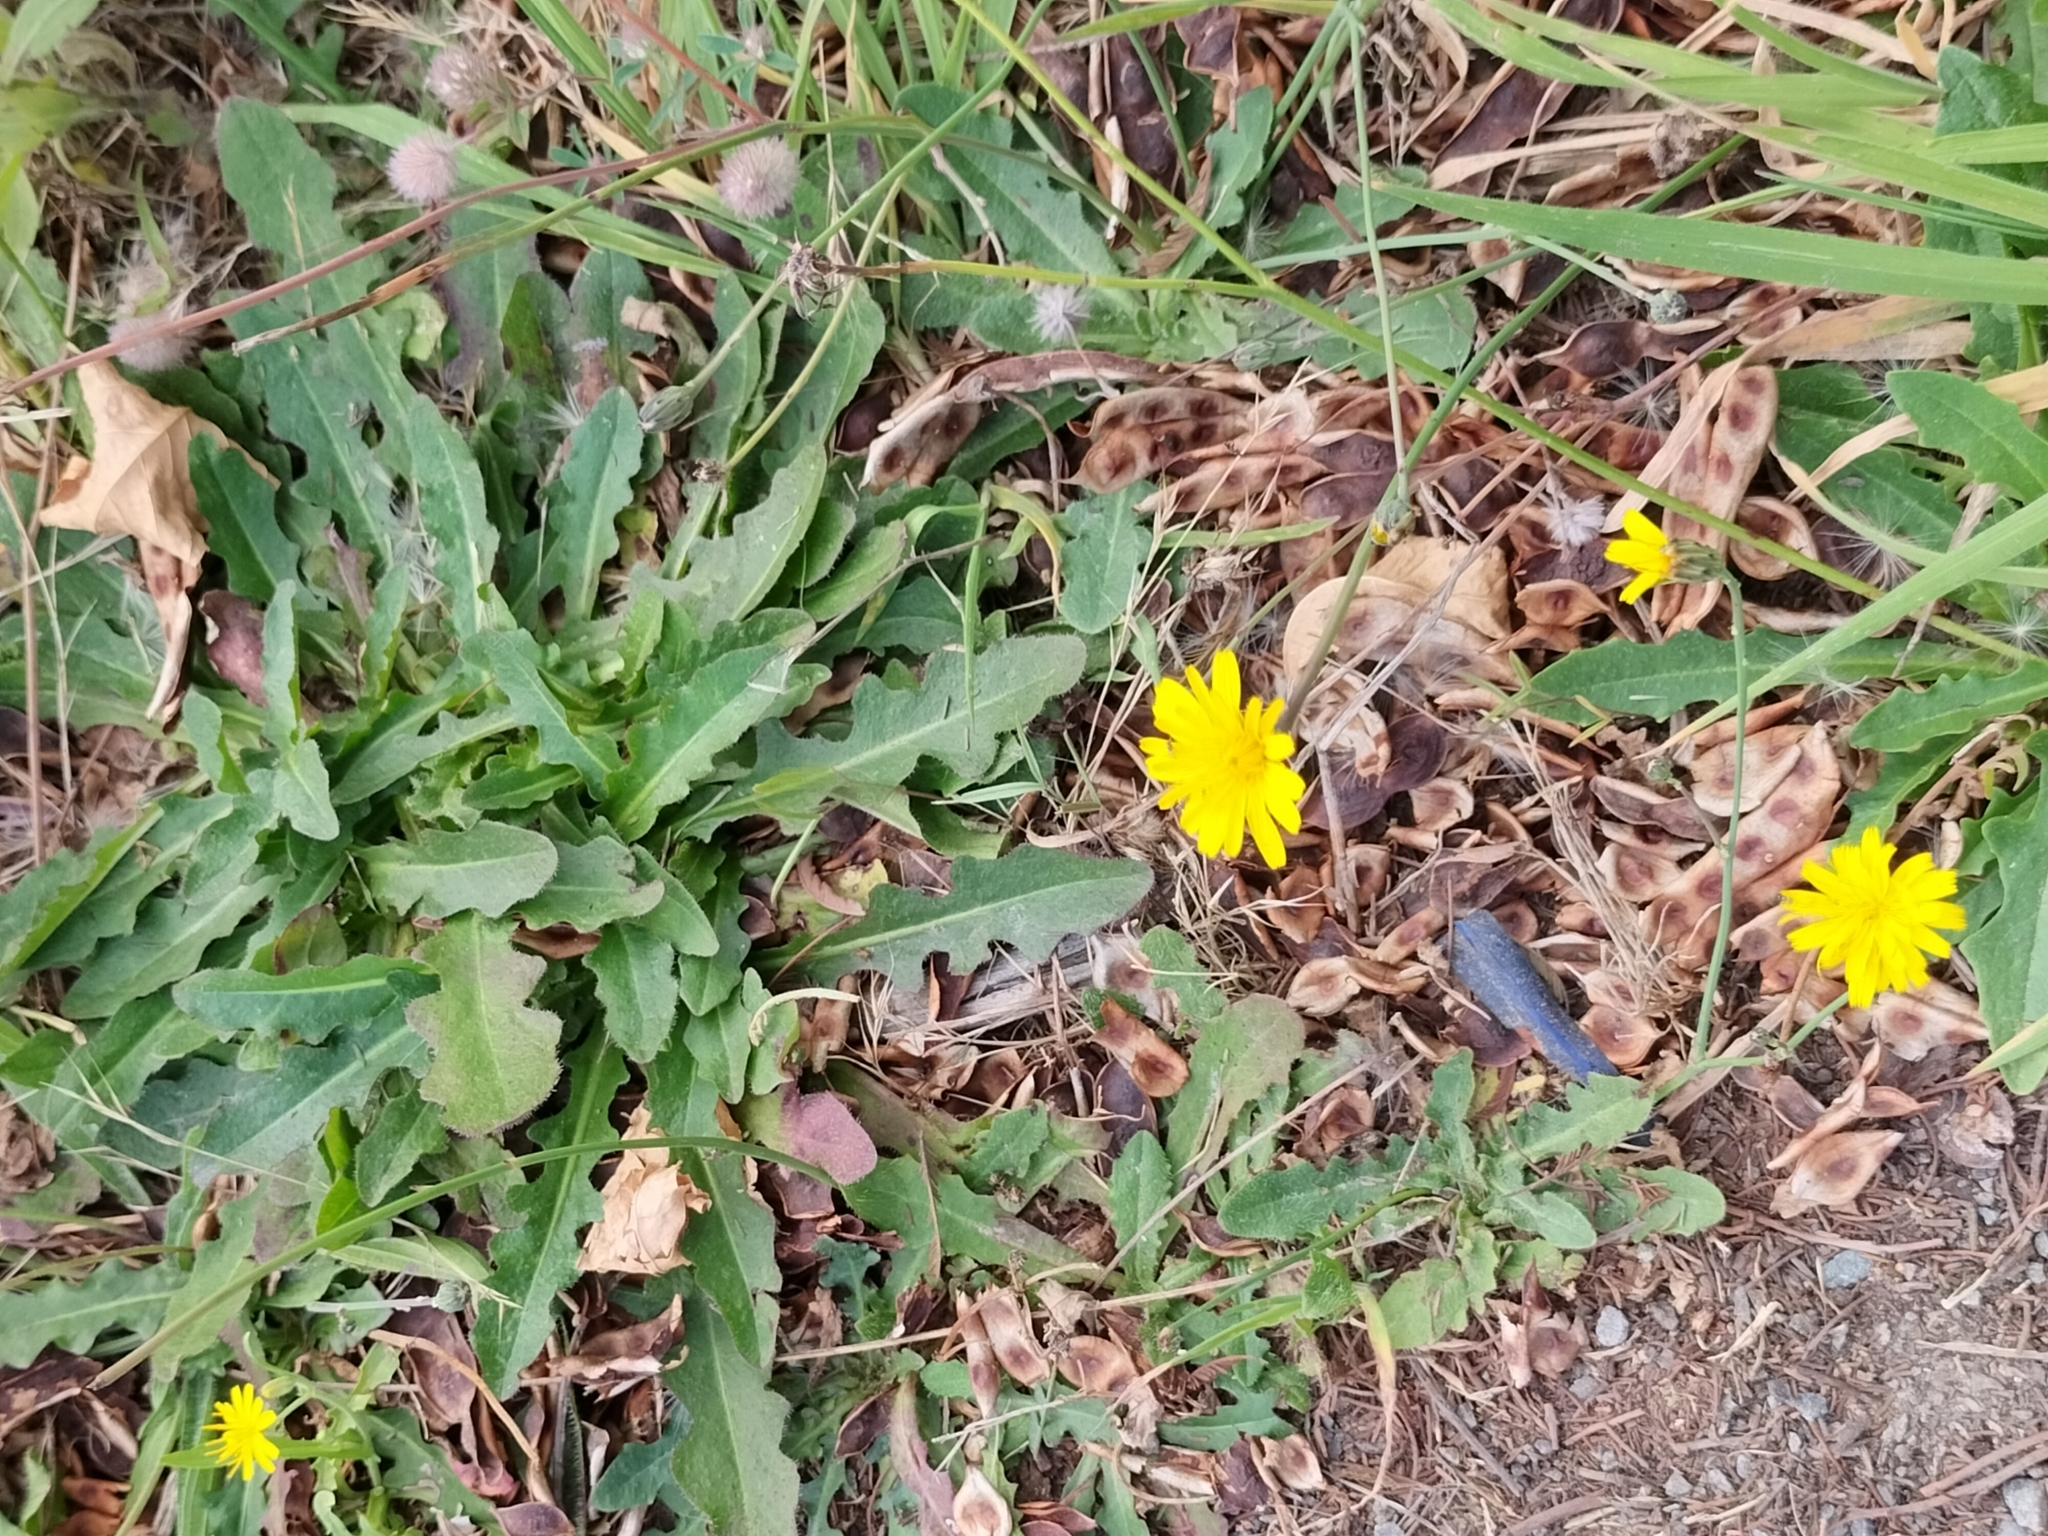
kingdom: Plantae
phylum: Tracheophyta
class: Magnoliopsida
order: Asterales
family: Asteraceae
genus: Hypochaeris
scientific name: Hypochaeris radicata
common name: Flatweed
